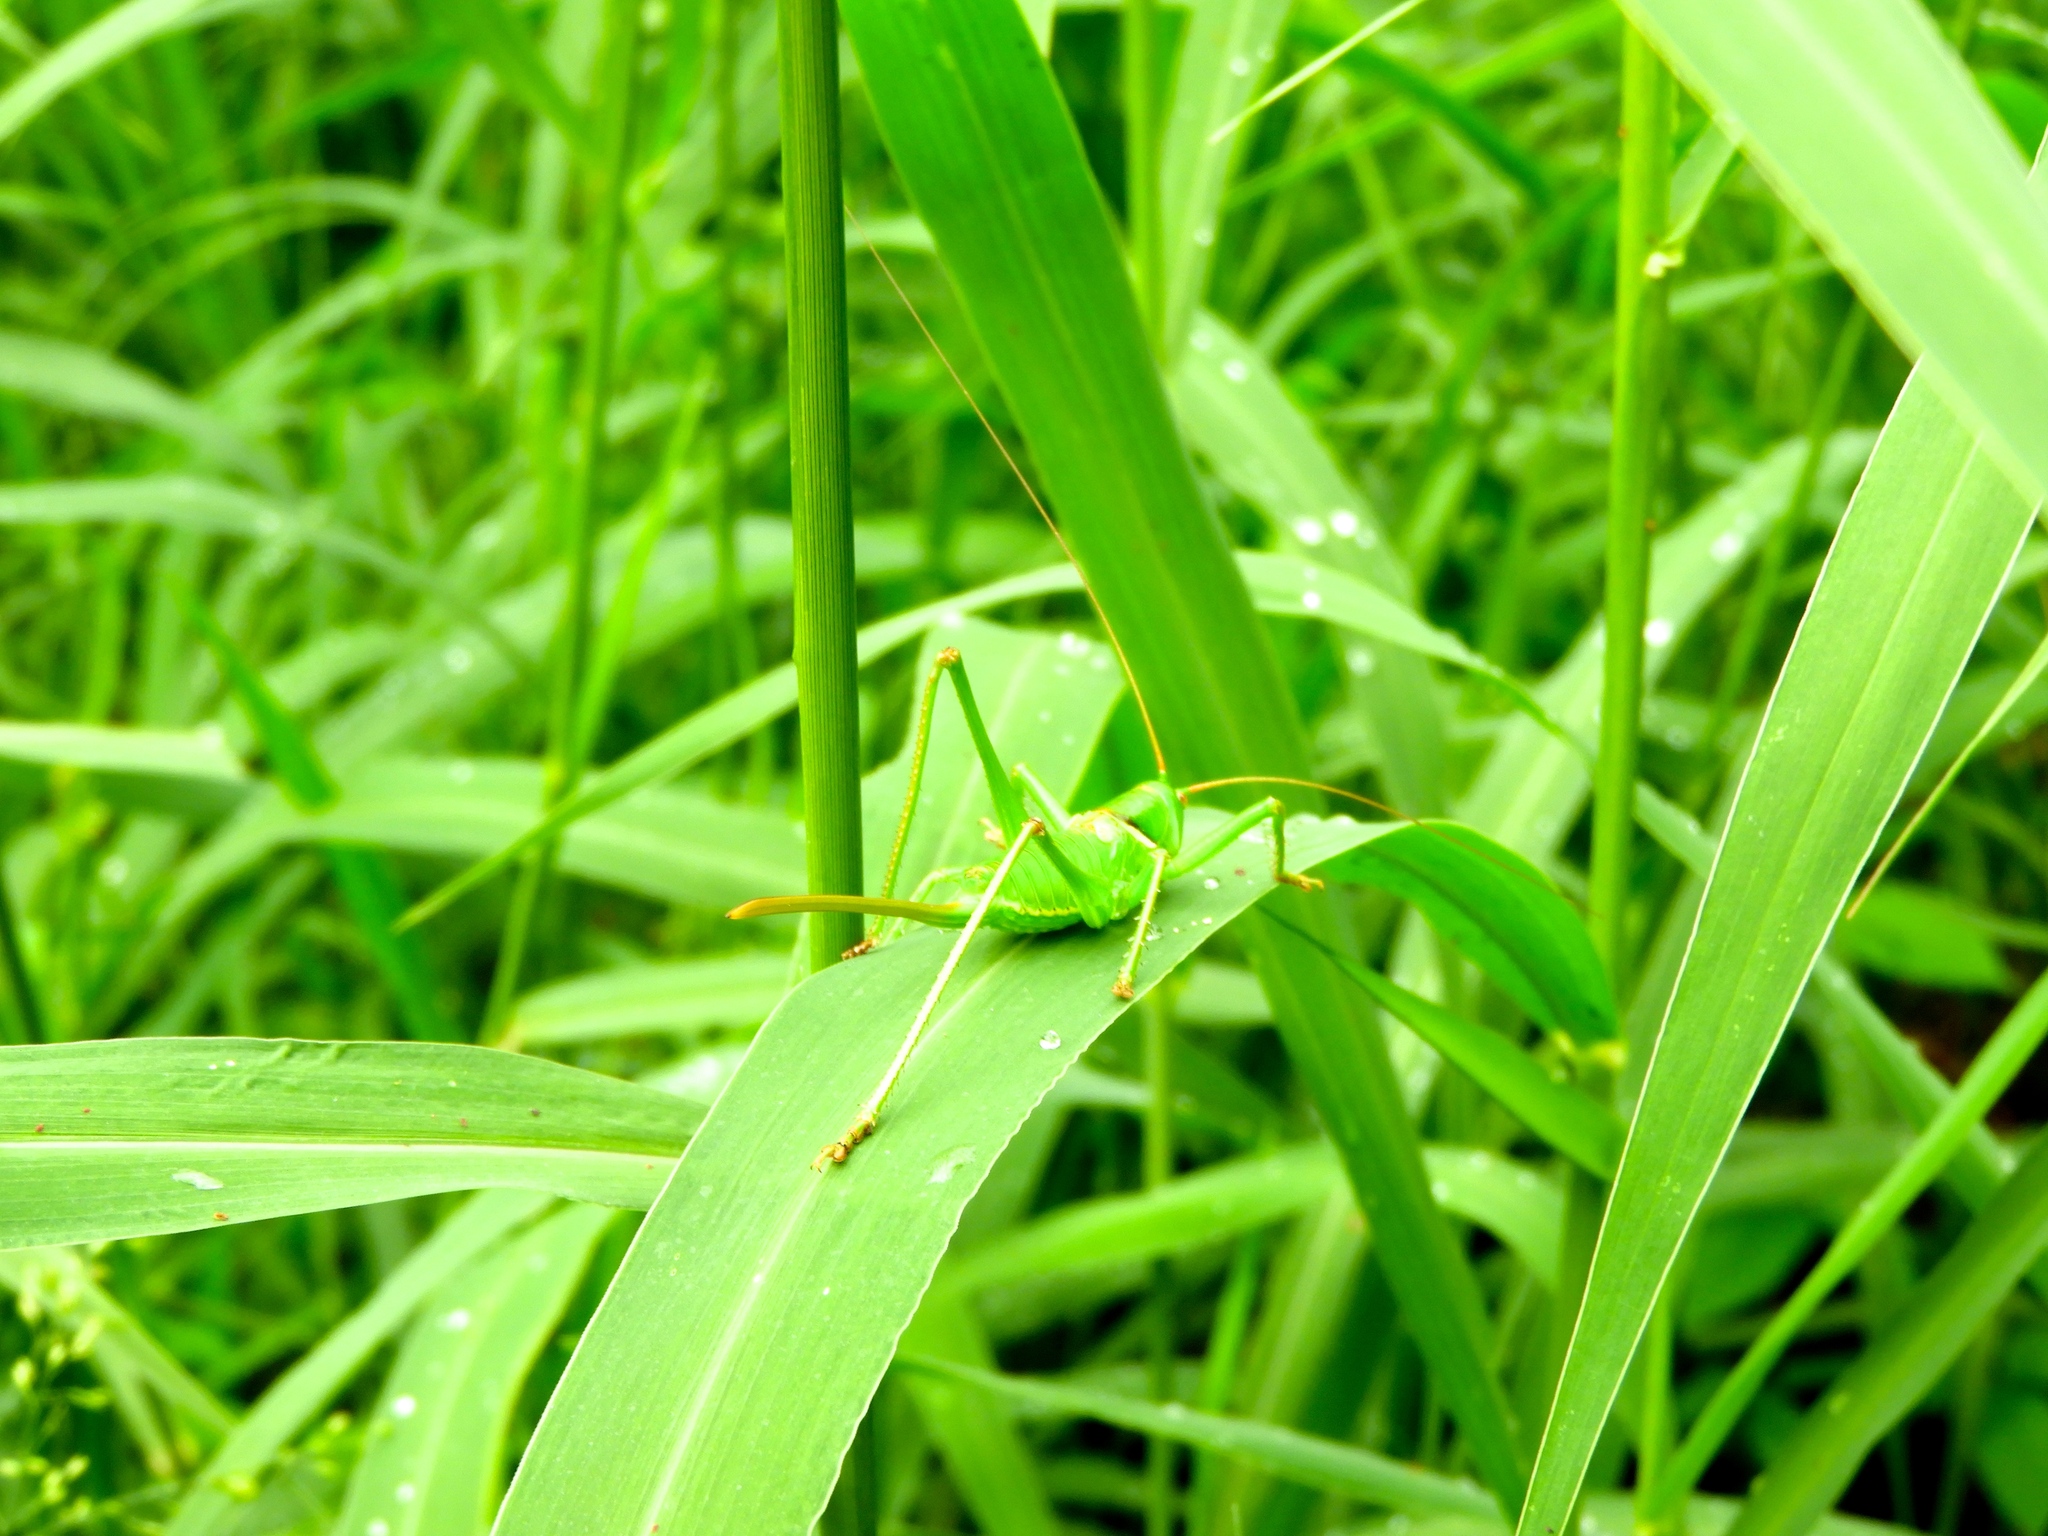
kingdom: Animalia
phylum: Arthropoda
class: Insecta
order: Orthoptera
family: Tettigoniidae
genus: Neobarrettia
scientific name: Neobarrettia sinaloae
